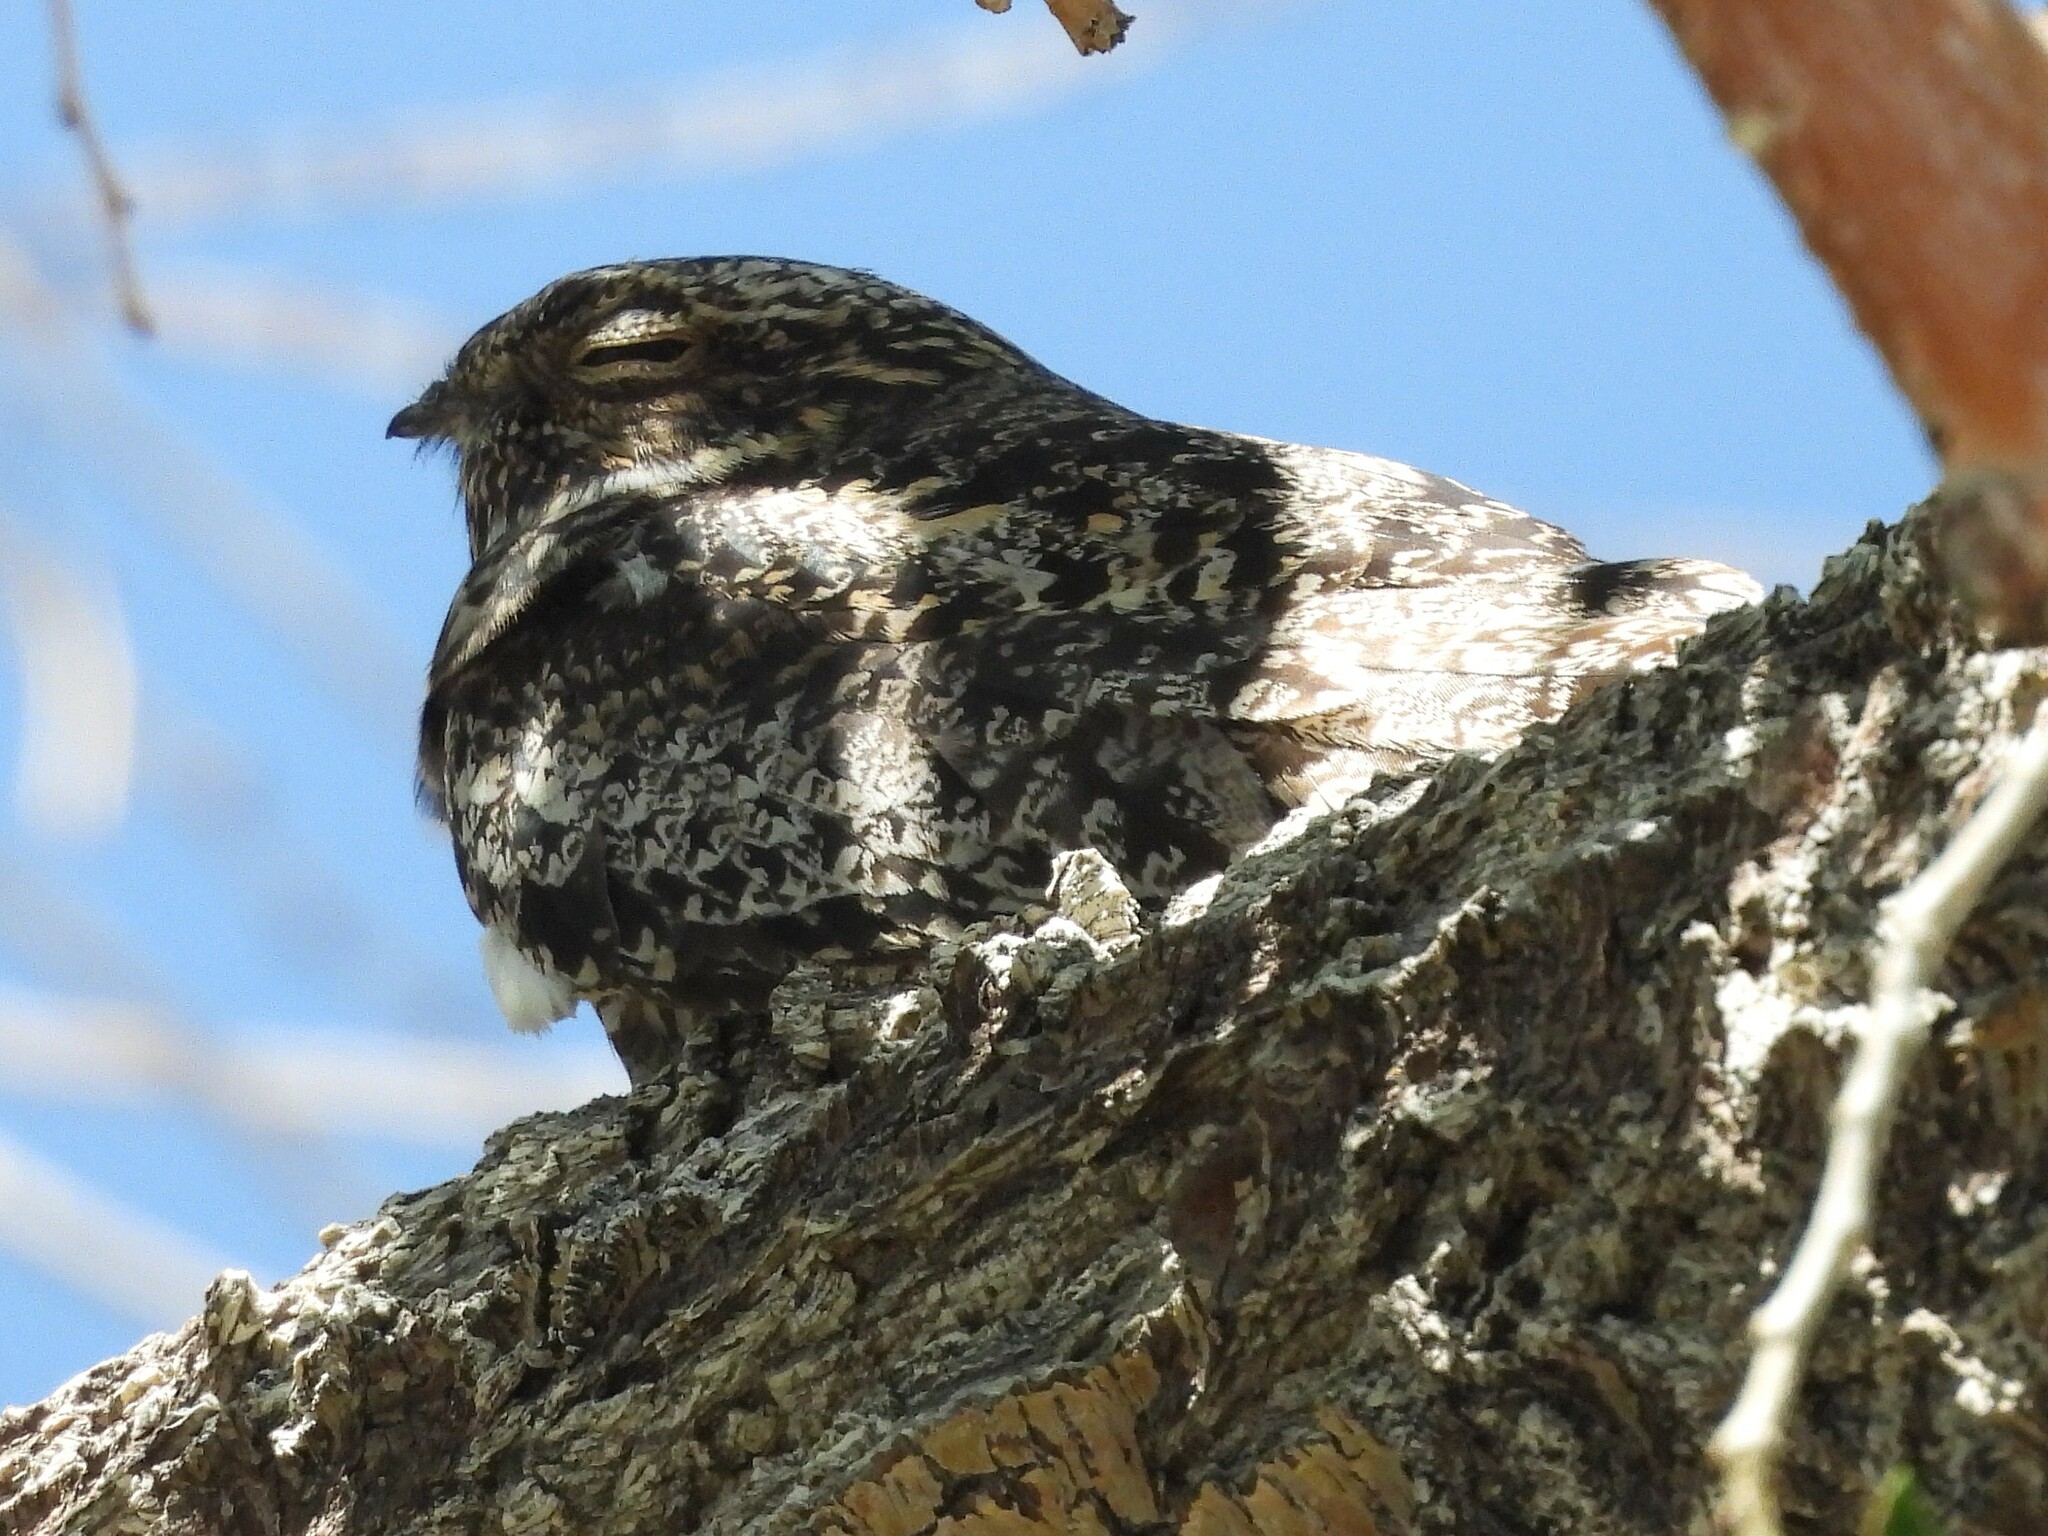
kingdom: Animalia
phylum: Chordata
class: Aves
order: Caprimulgiformes
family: Caprimulgidae
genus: Chordeiles
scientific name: Chordeiles minor
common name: Common nighthawk
